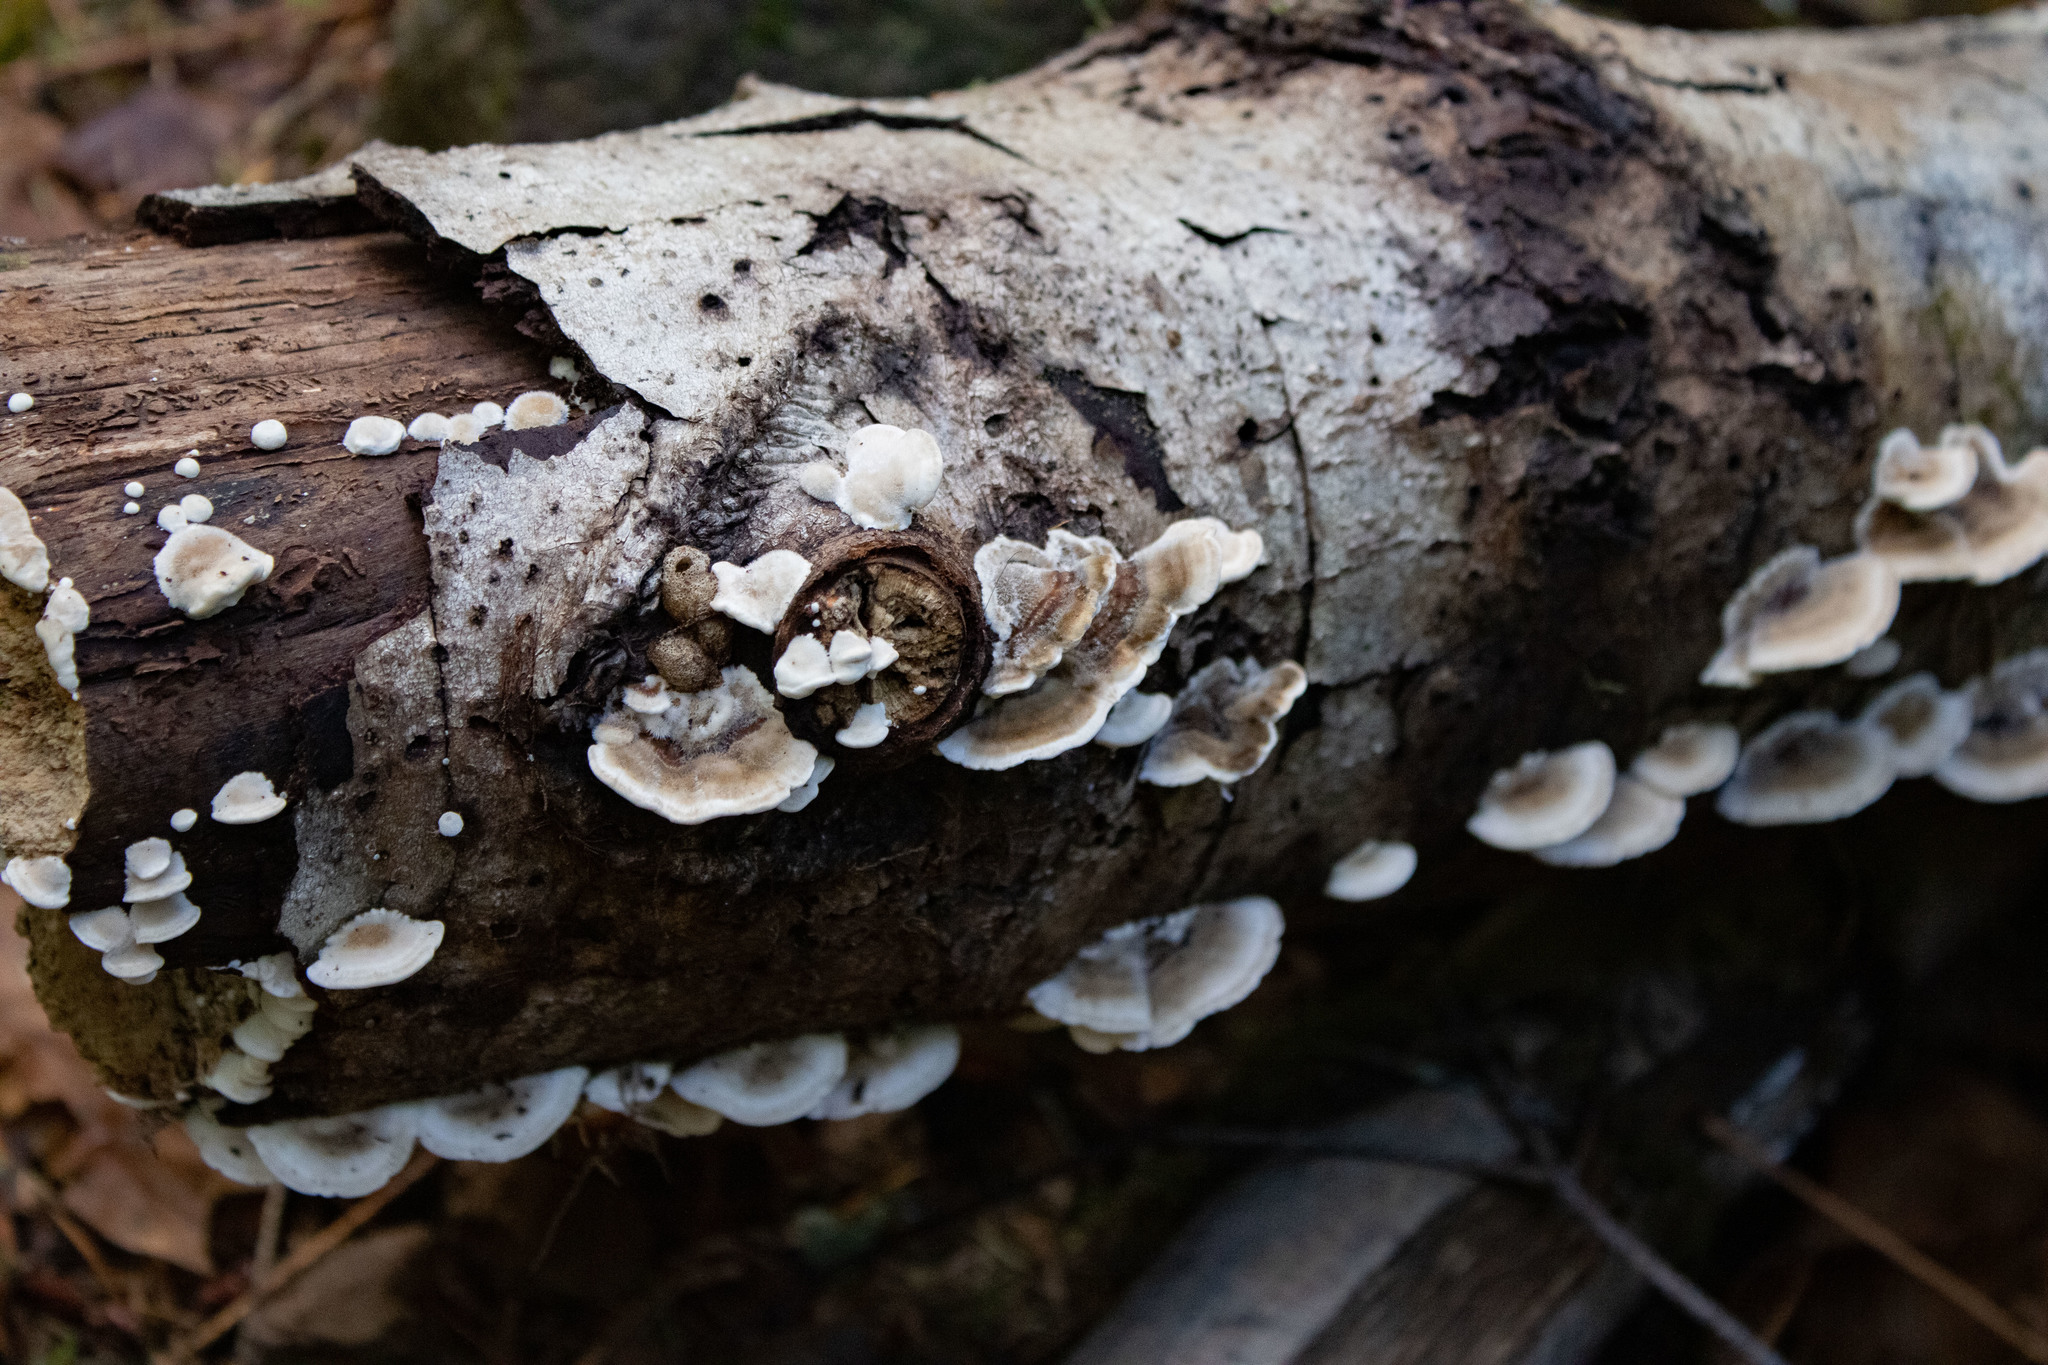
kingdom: Fungi
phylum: Basidiomycota
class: Agaricomycetes
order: Polyporales
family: Polyporaceae
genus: Trametes
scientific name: Trametes versicolor
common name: Turkeytail
